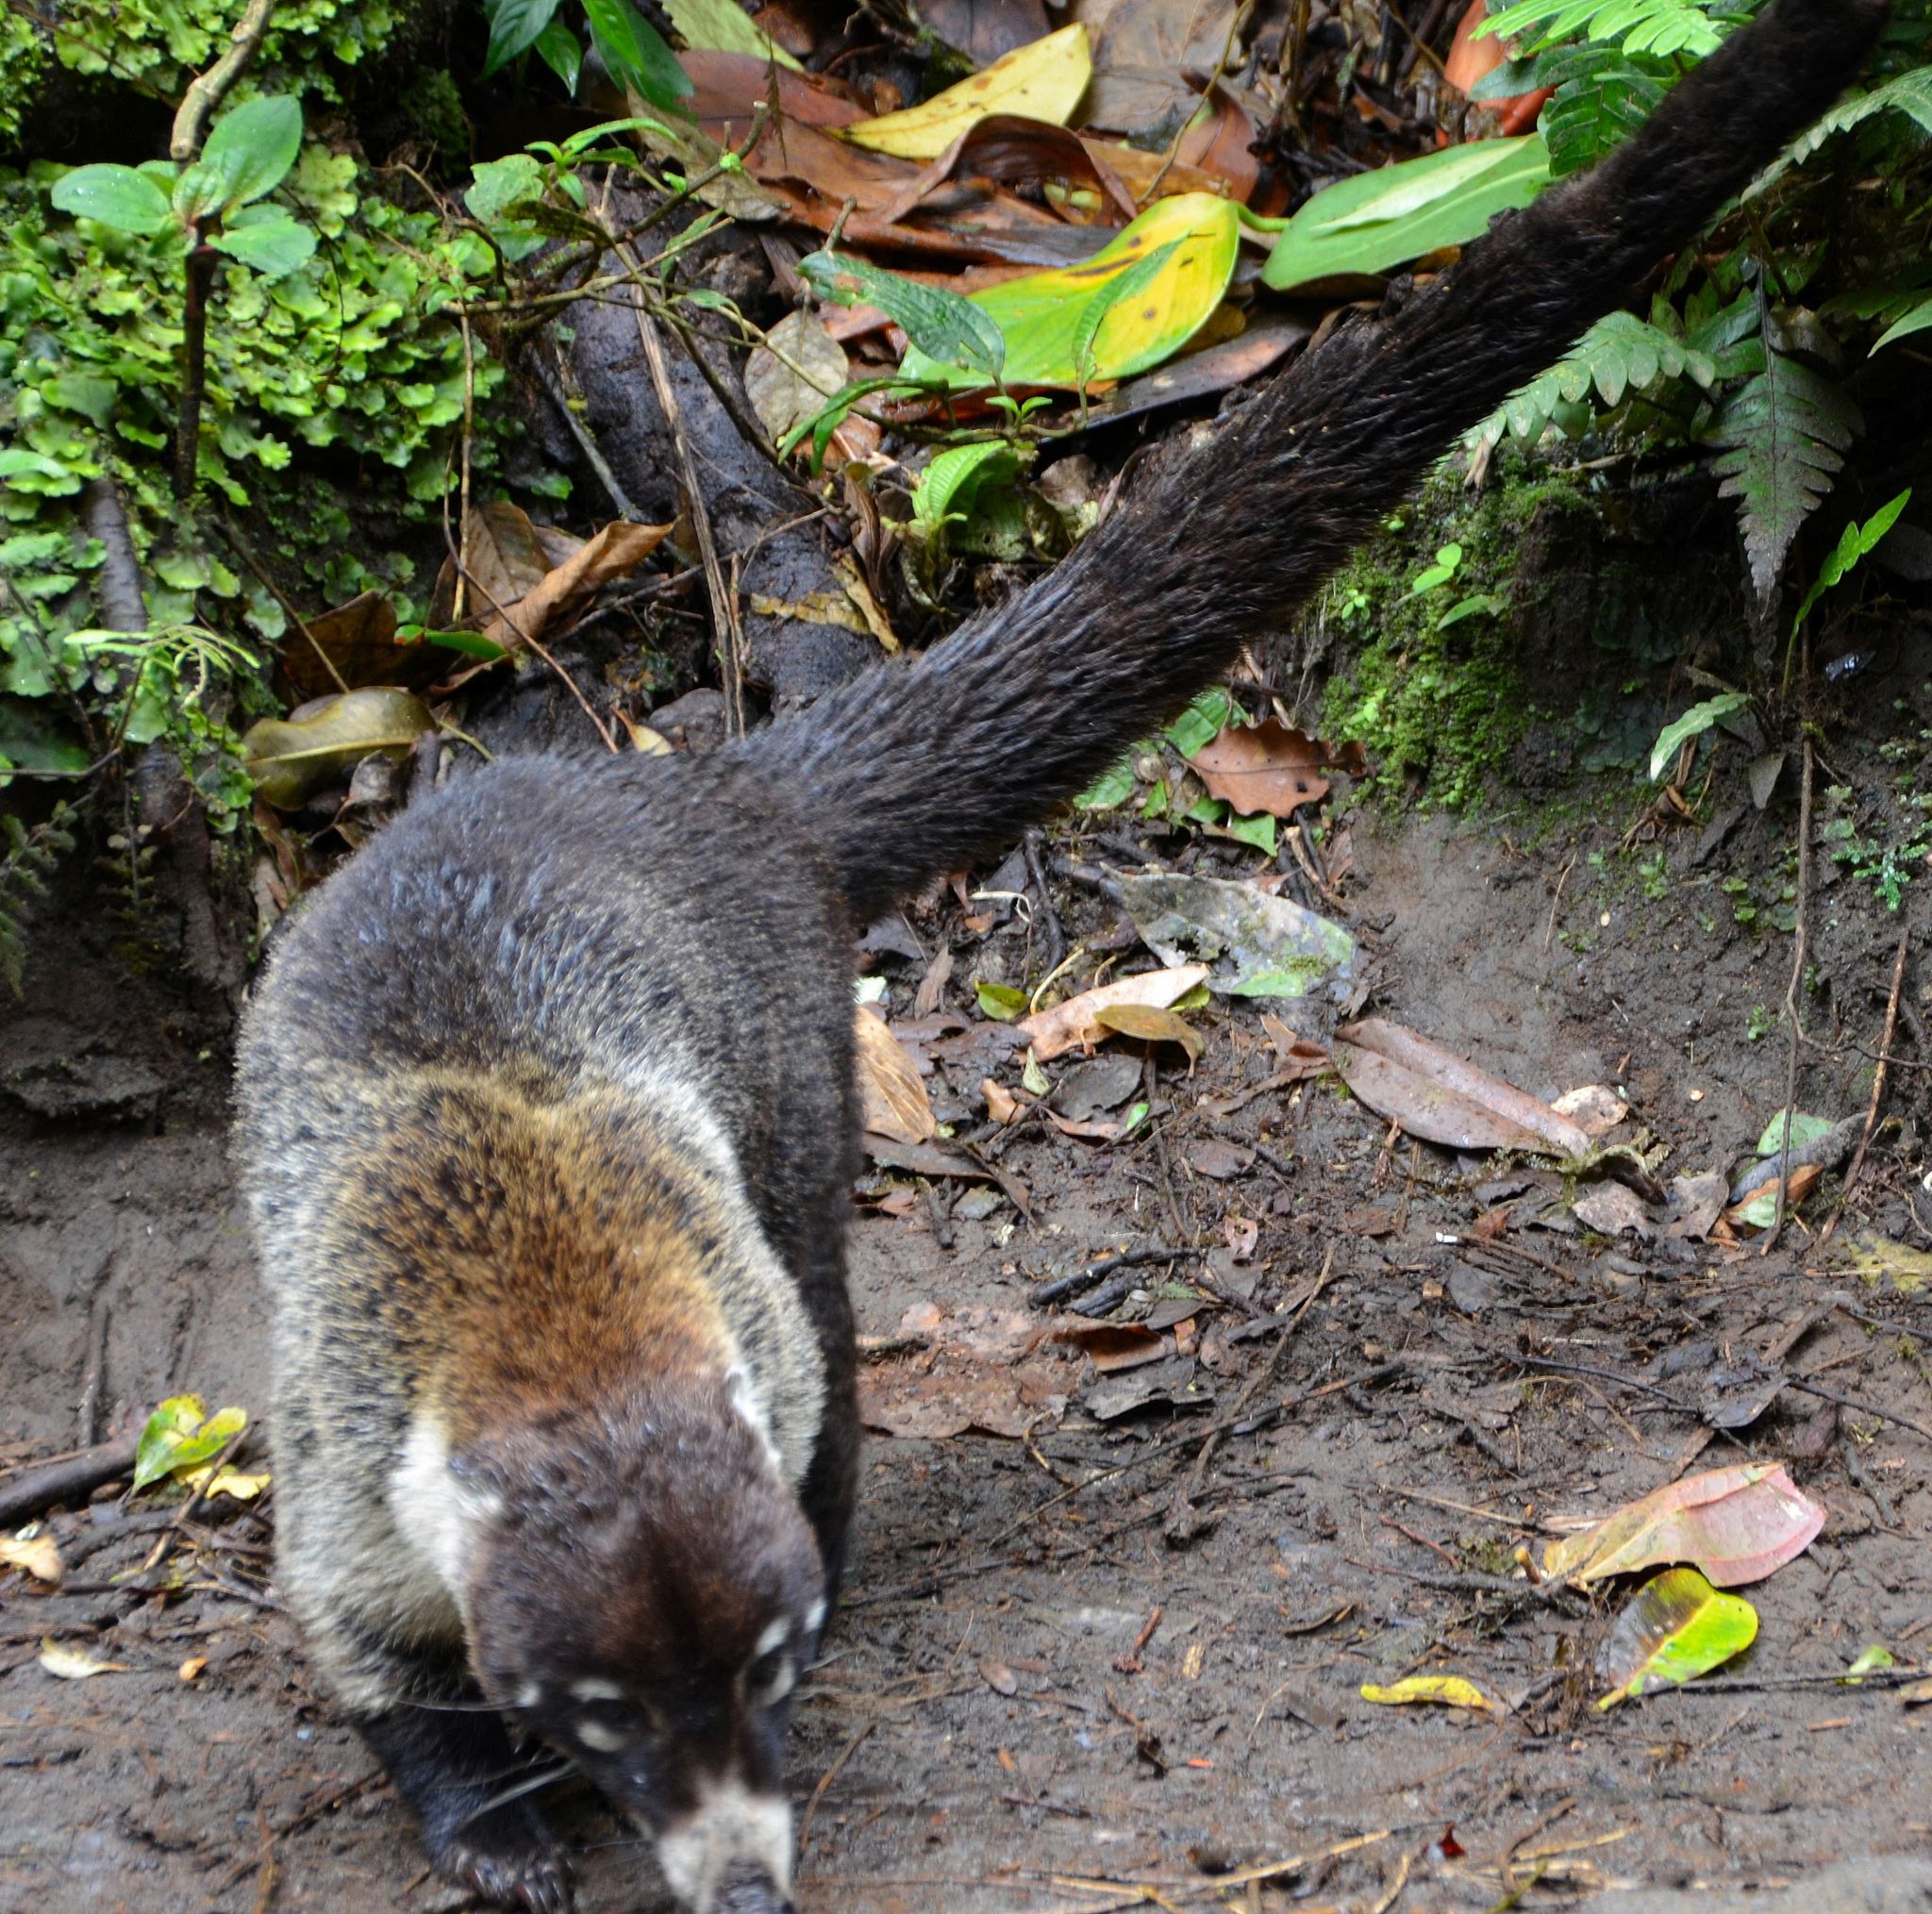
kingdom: Animalia
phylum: Chordata
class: Mammalia
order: Carnivora
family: Procyonidae
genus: Nasua
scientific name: Nasua narica
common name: White-nosed coati
